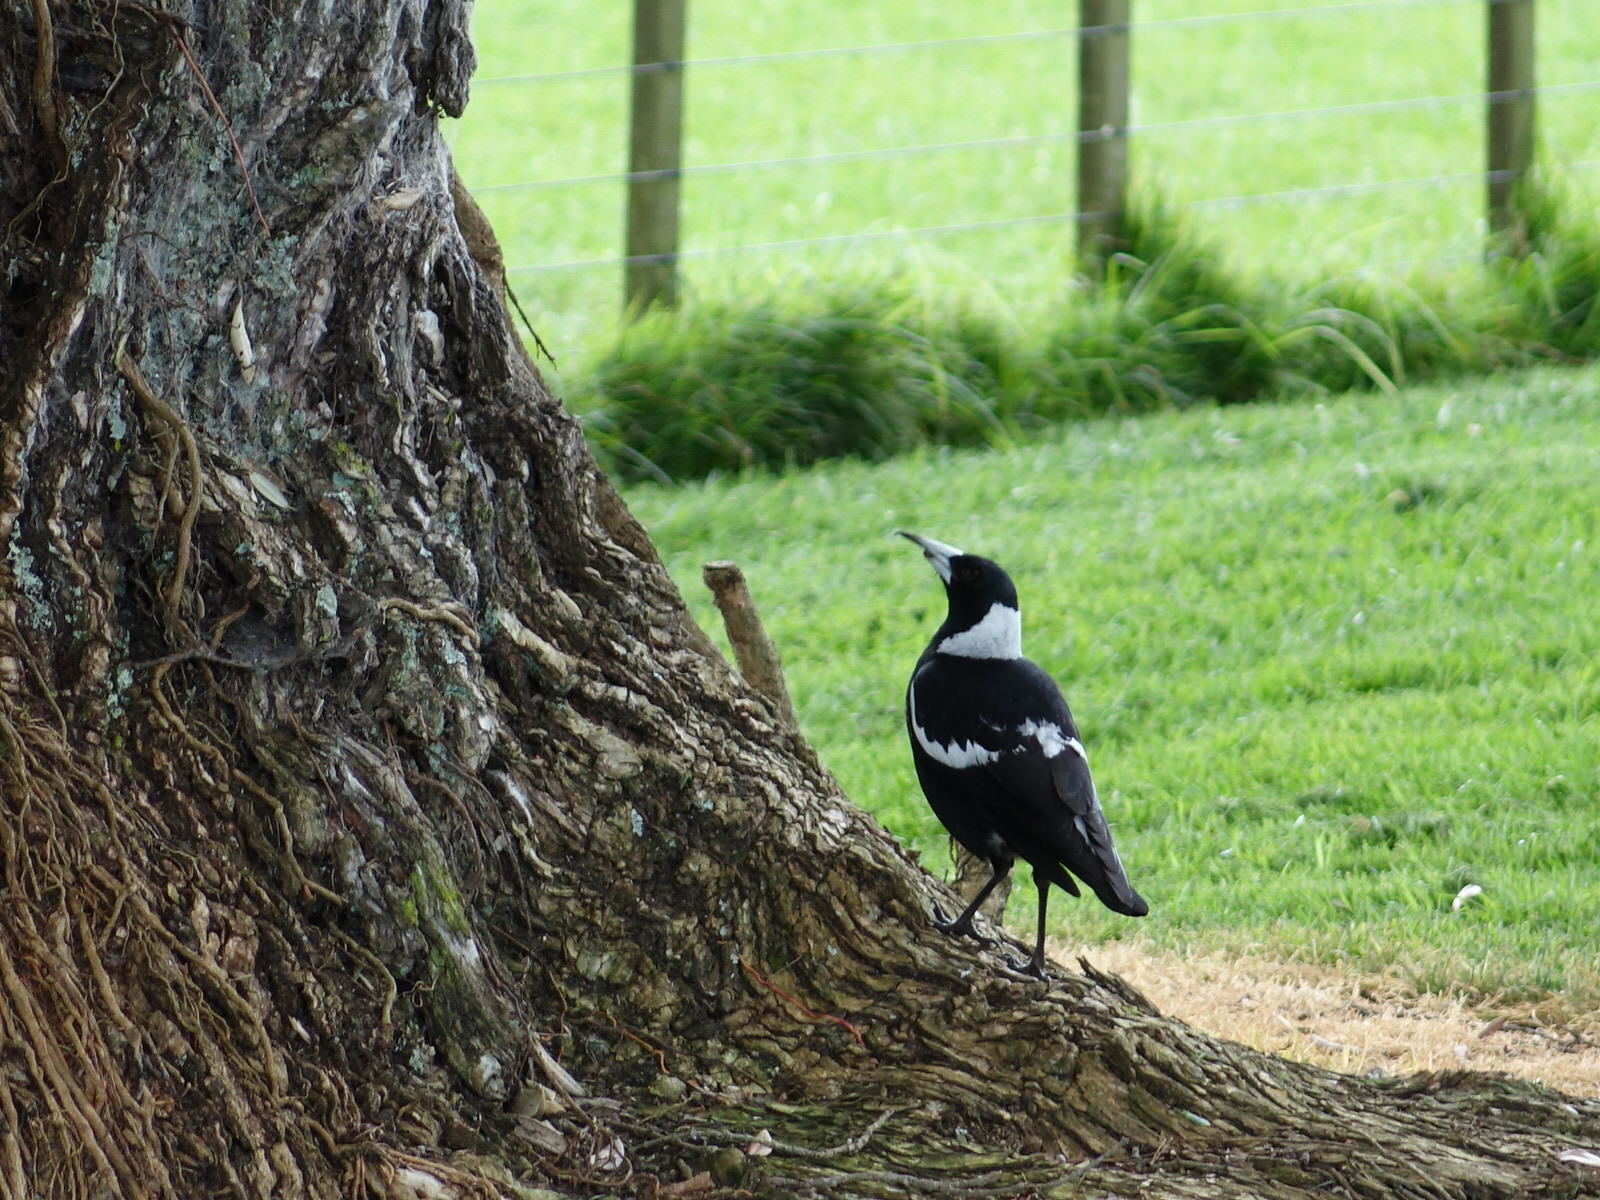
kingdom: Animalia
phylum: Chordata
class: Aves
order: Passeriformes
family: Cracticidae
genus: Gymnorhina
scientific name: Gymnorhina tibicen
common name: Australian magpie
